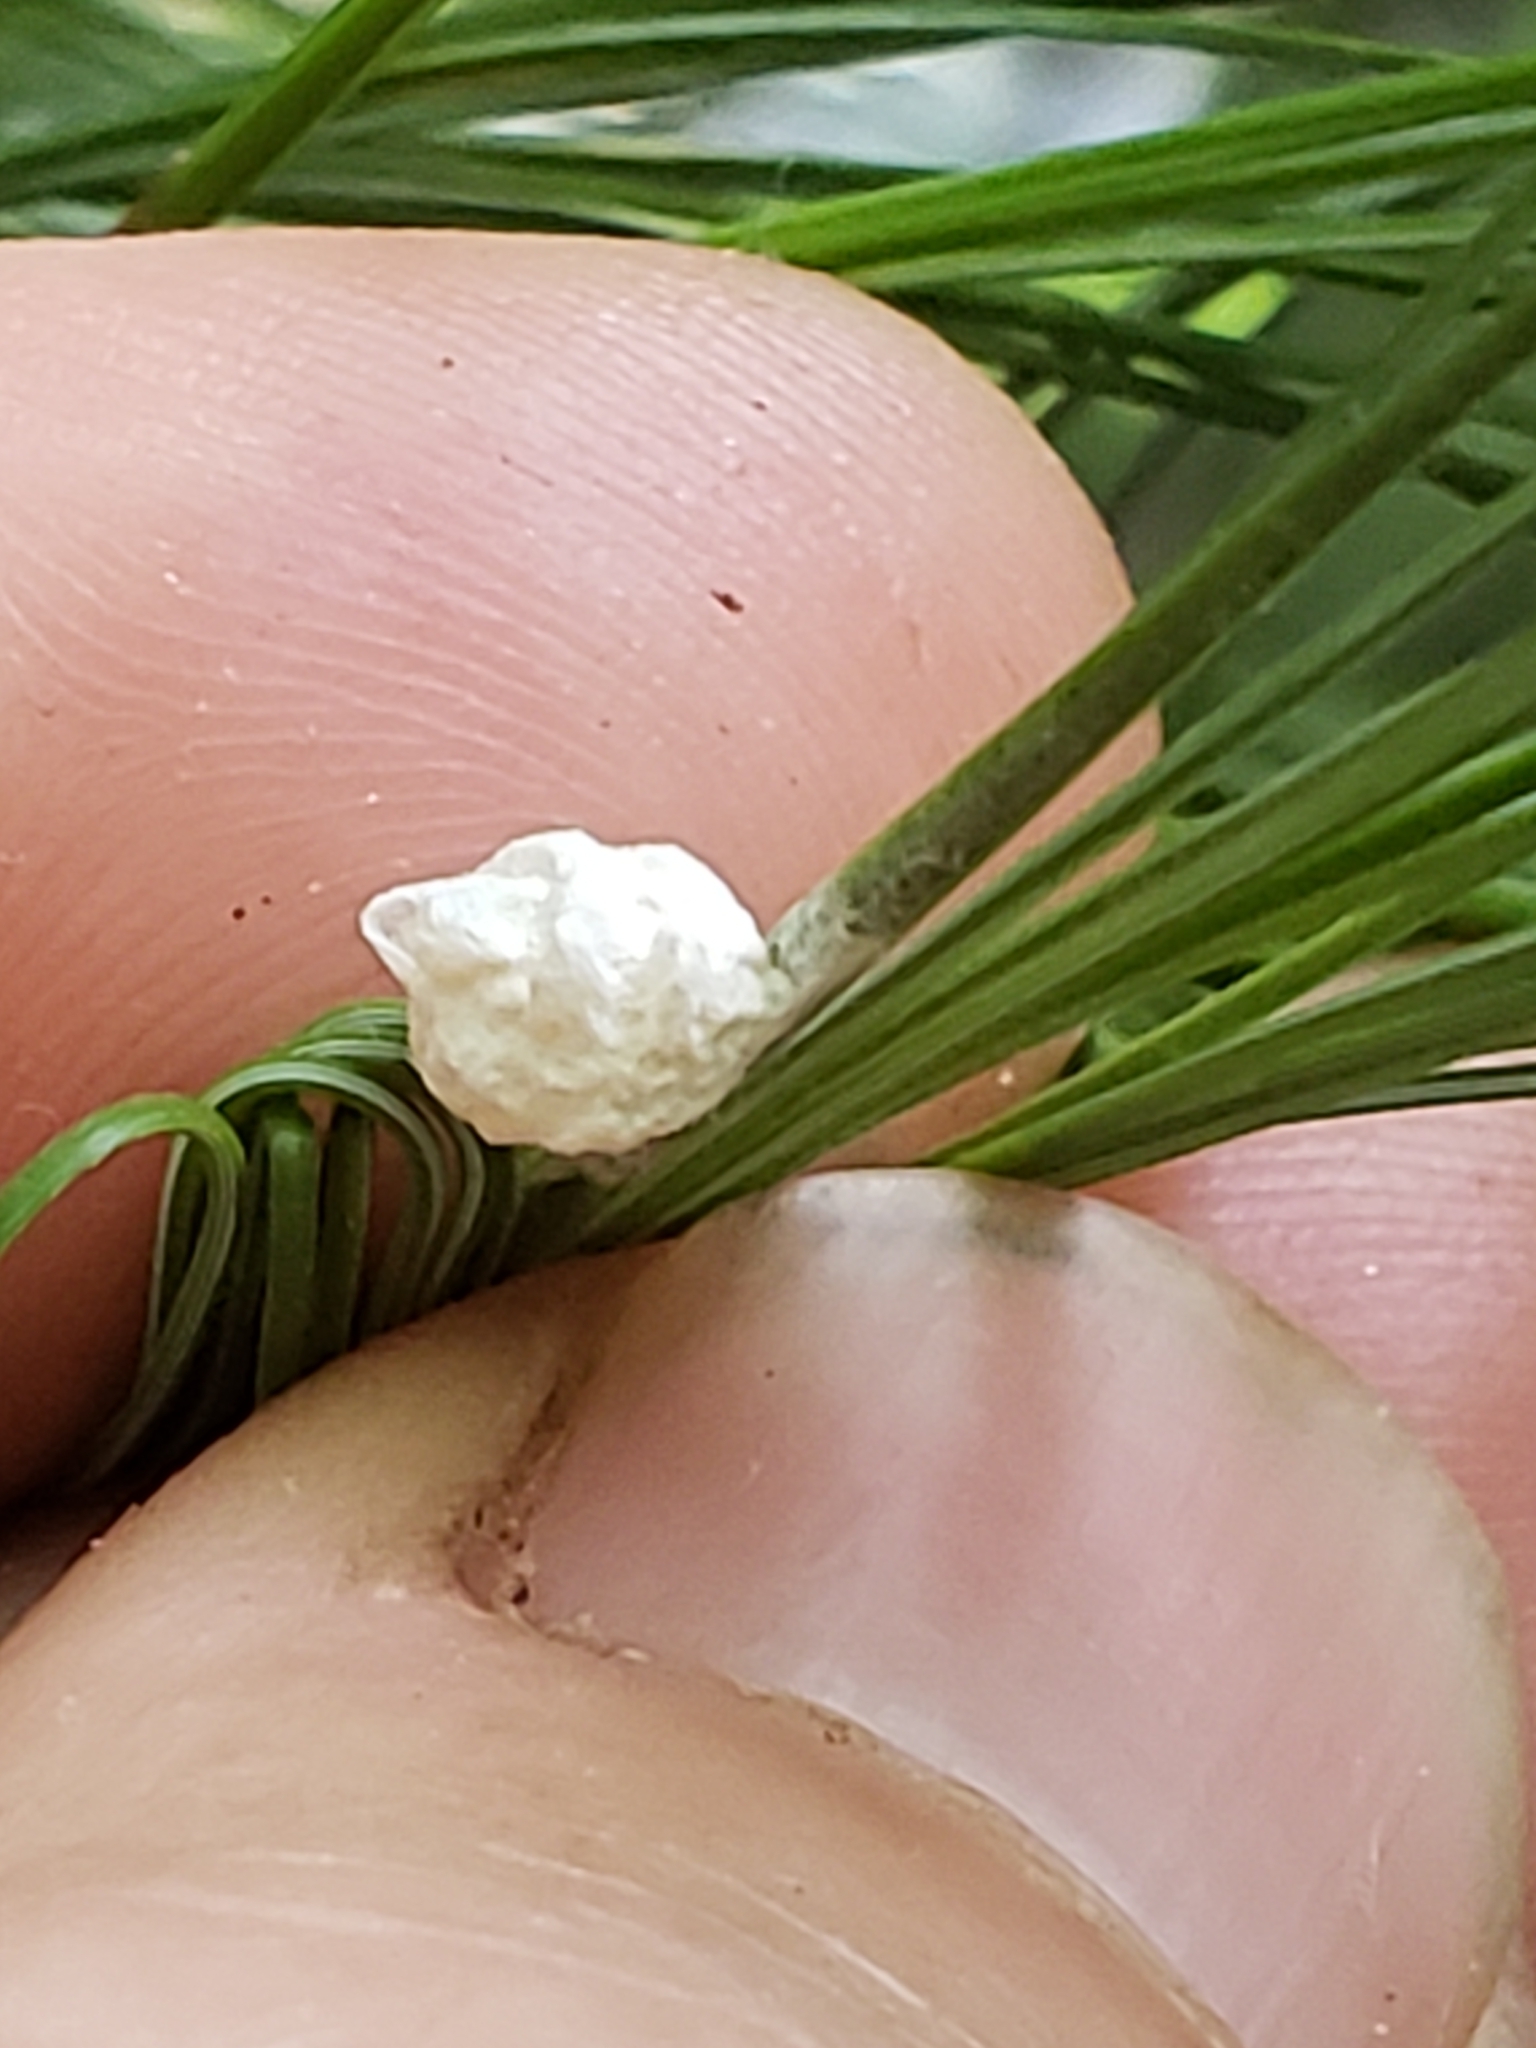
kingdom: Animalia
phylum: Arthropoda
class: Insecta
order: Lepidoptera
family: Epipyropidae
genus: Fulgoraecia
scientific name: Fulgoraecia exigua
